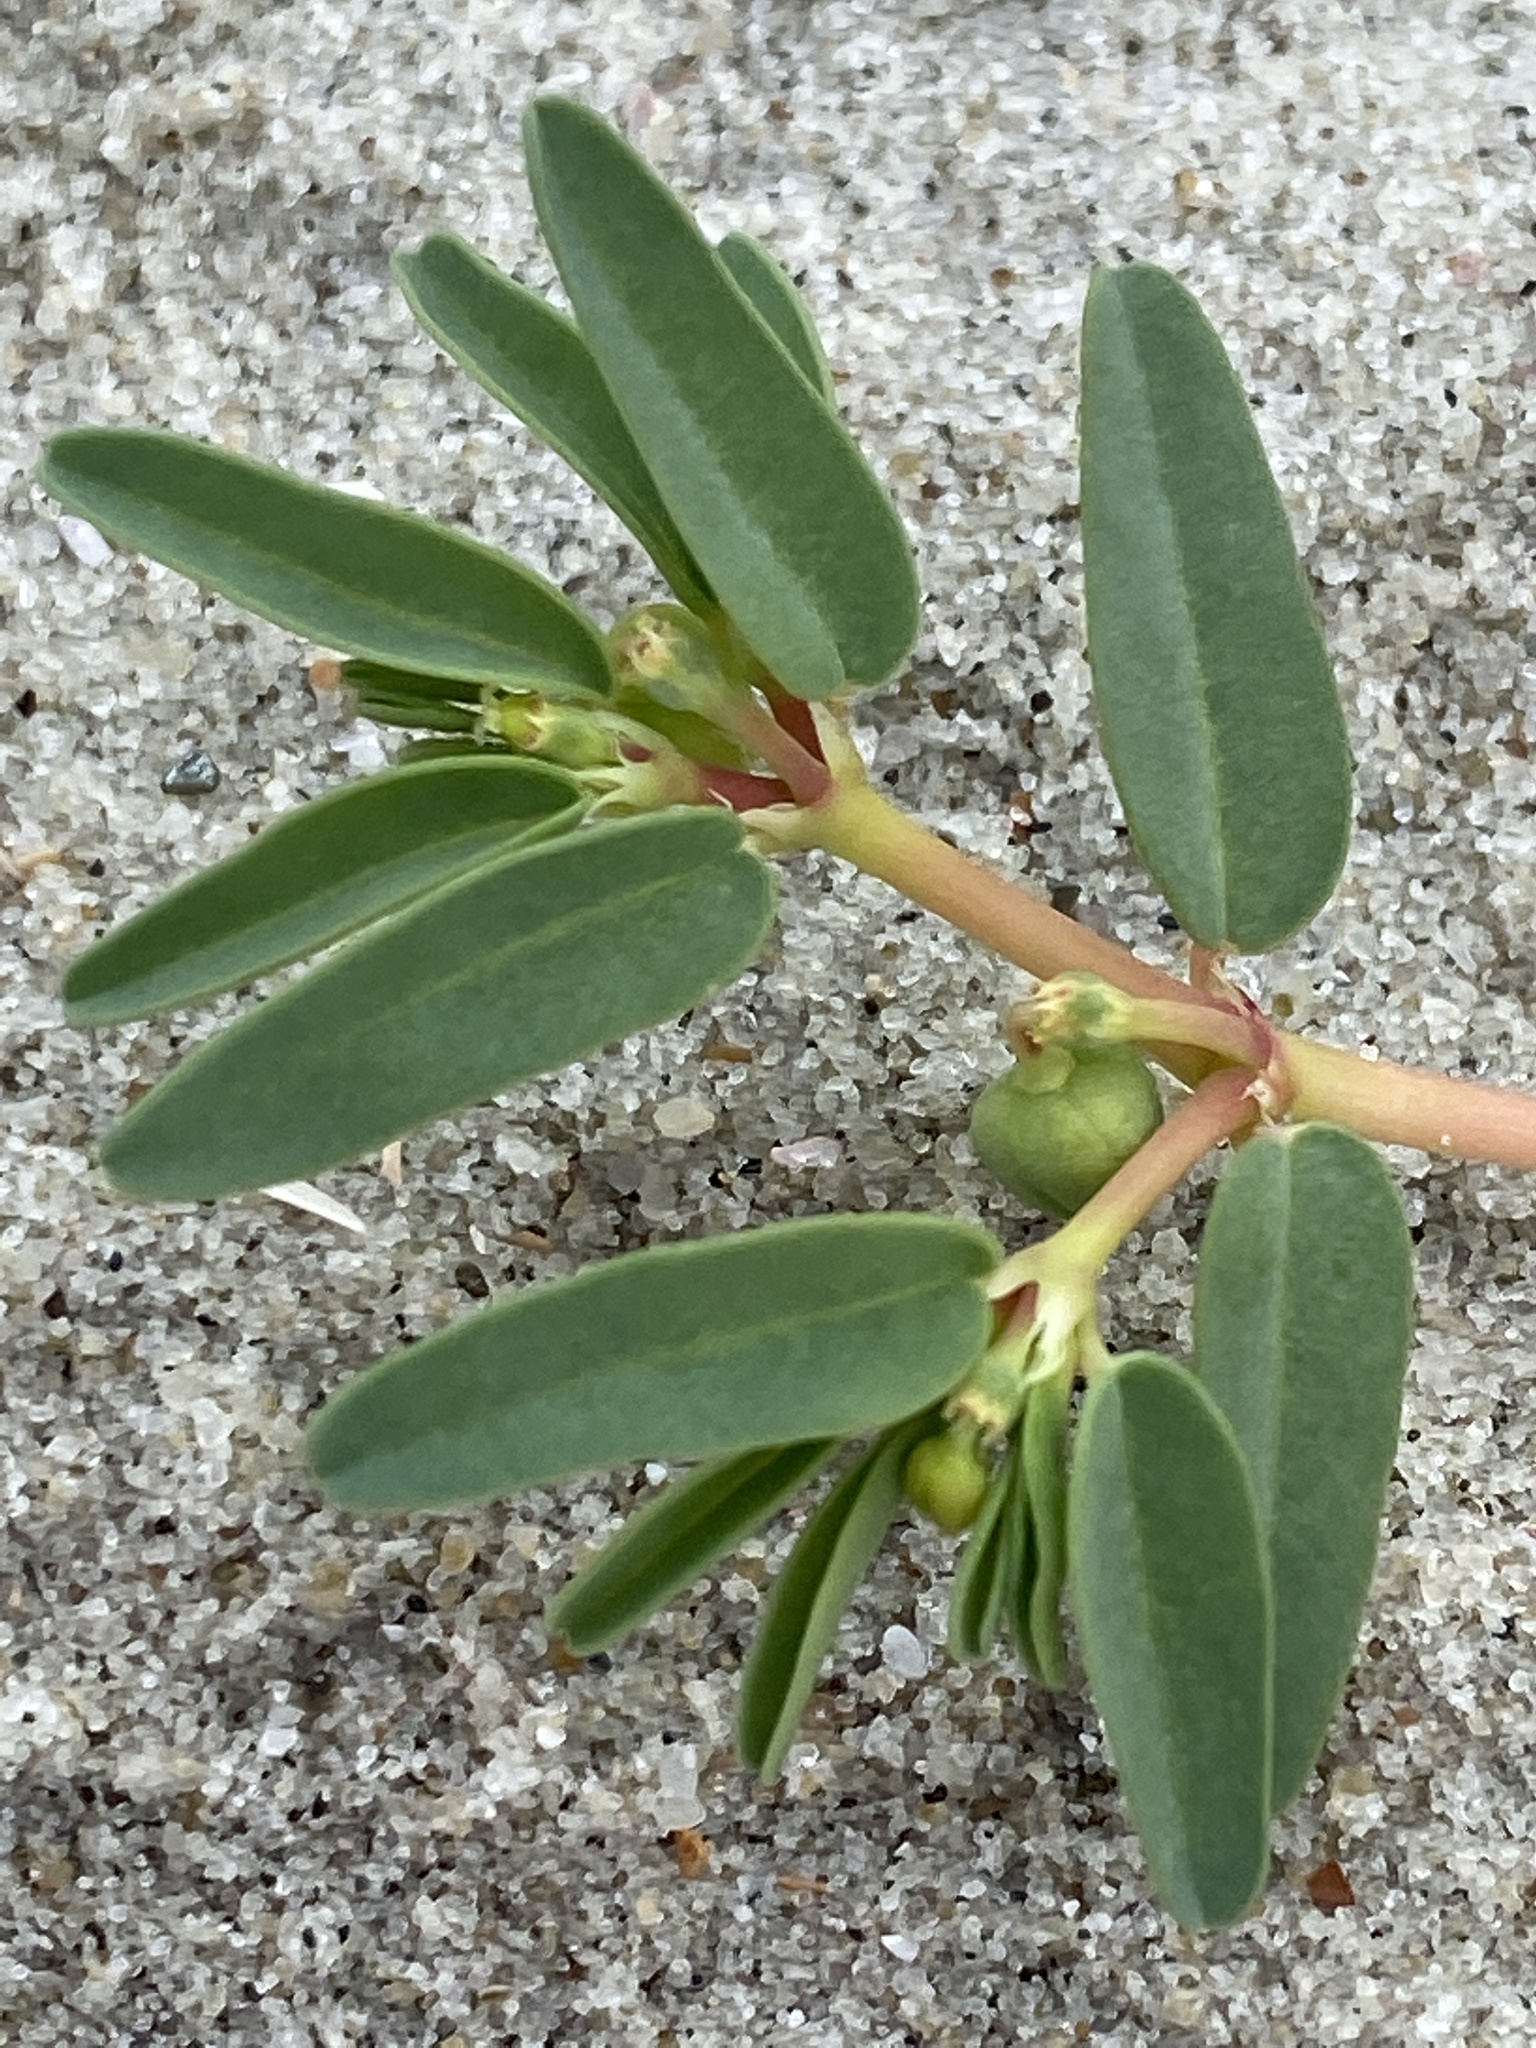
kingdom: Plantae
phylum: Tracheophyta
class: Magnoliopsida
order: Malpighiales
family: Euphorbiaceae
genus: Euphorbia
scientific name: Euphorbia polygonifolia
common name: Knotweed spurge
